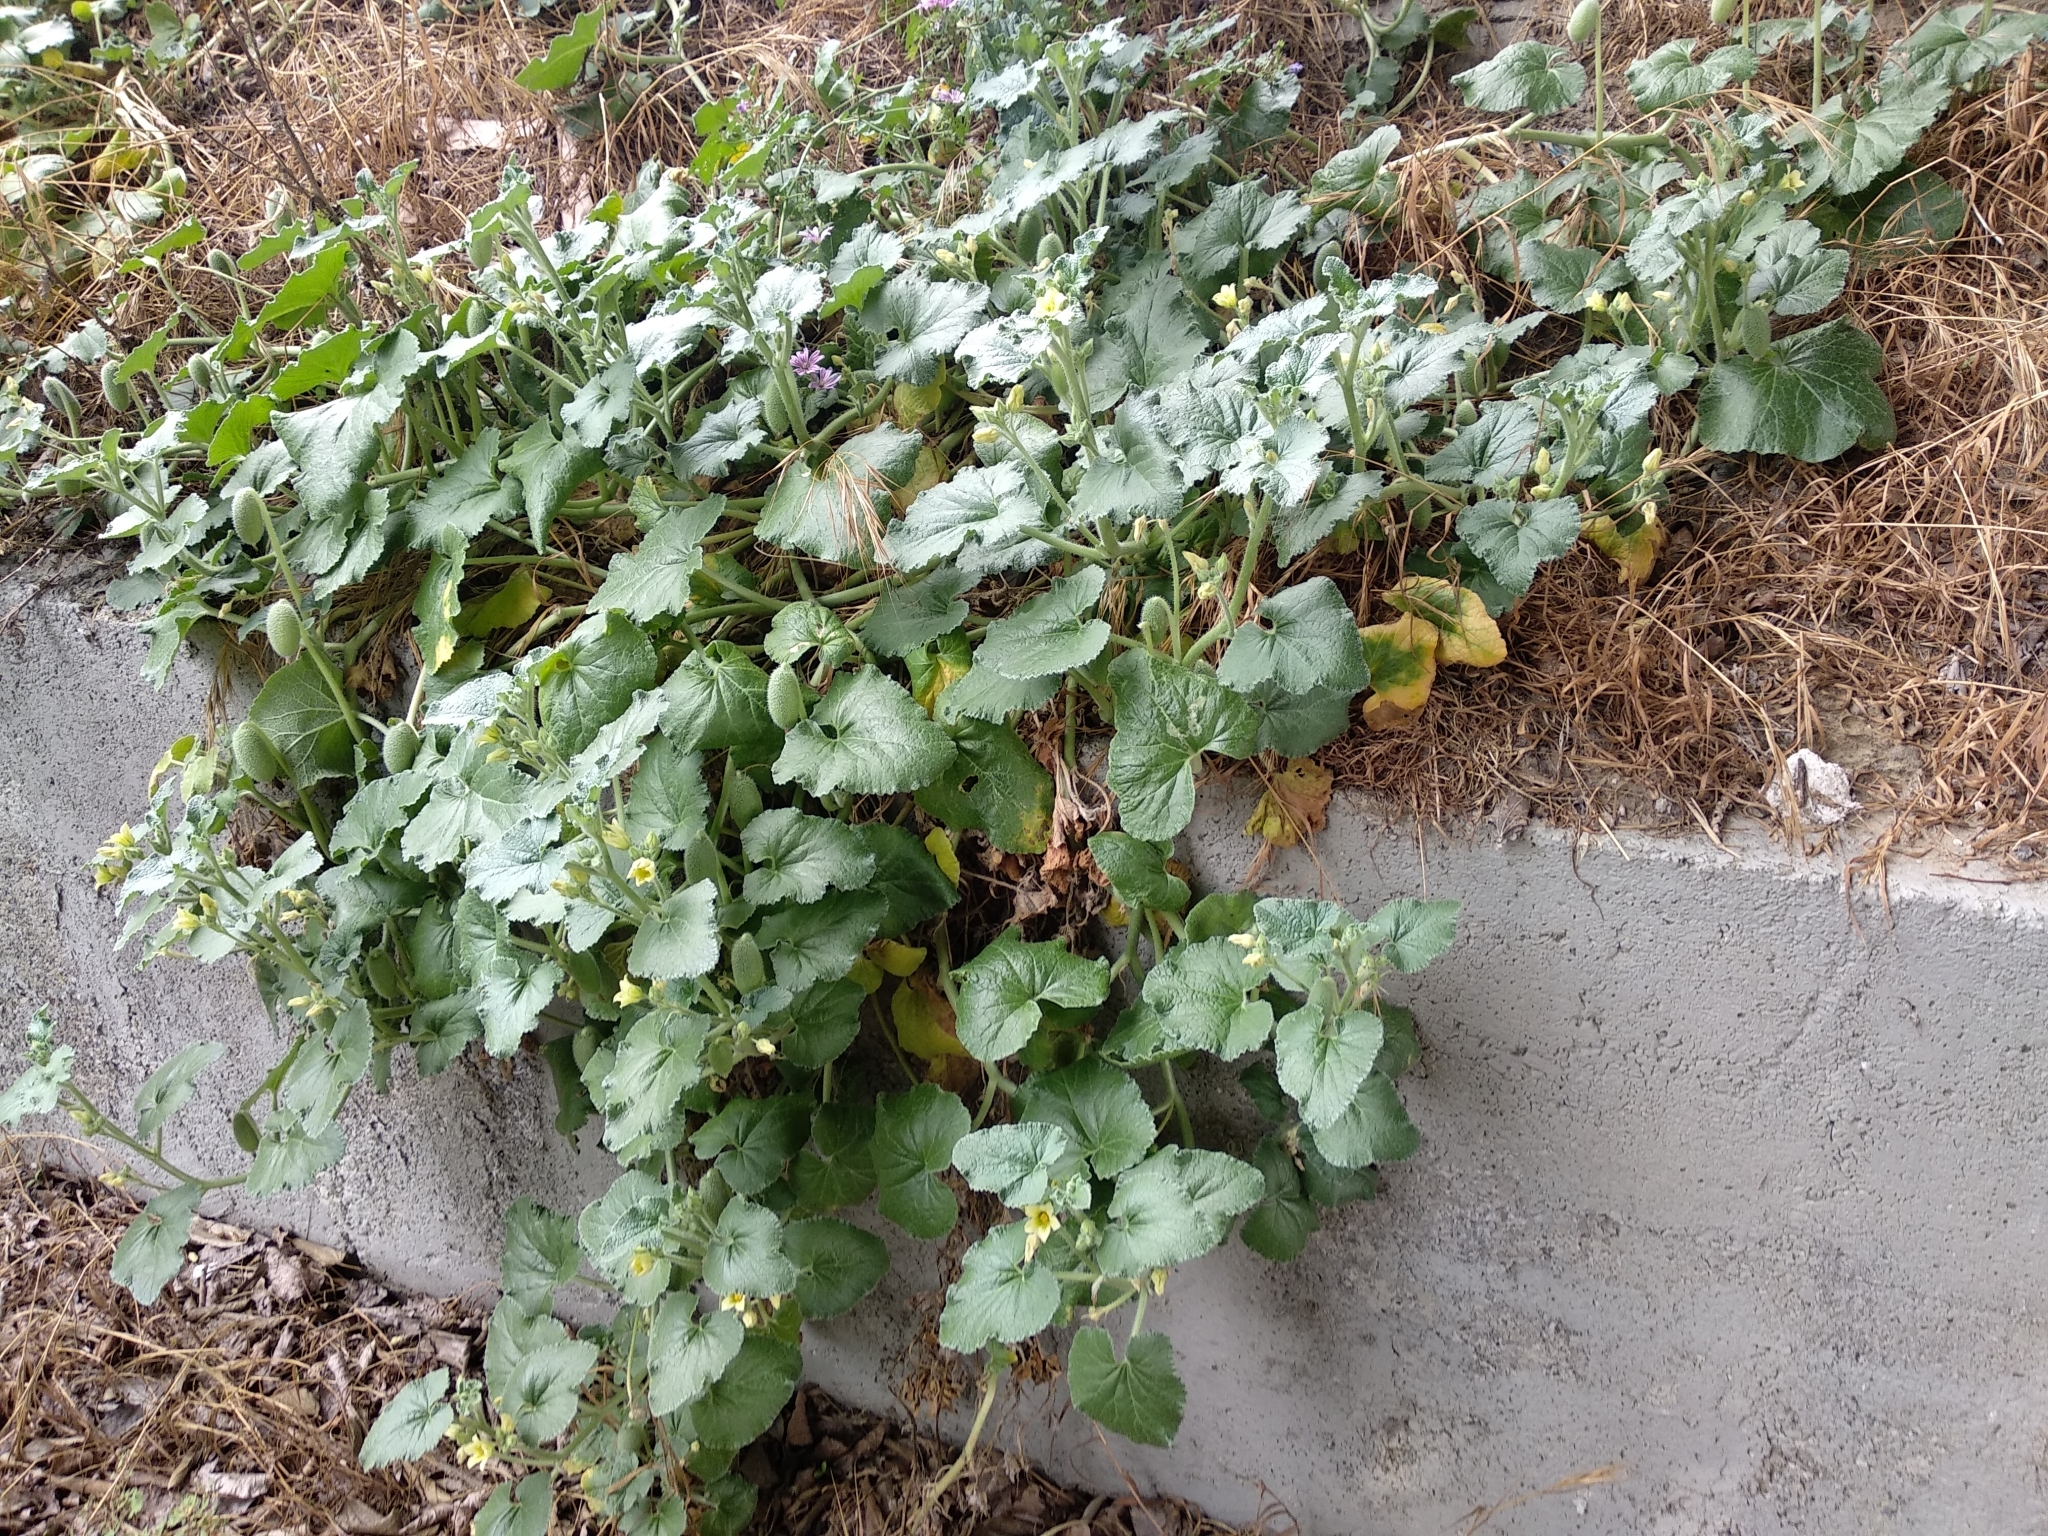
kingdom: Plantae
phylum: Tracheophyta
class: Magnoliopsida
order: Cucurbitales
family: Cucurbitaceae
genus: Ecballium
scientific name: Ecballium elaterium
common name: Squirting cucumber
